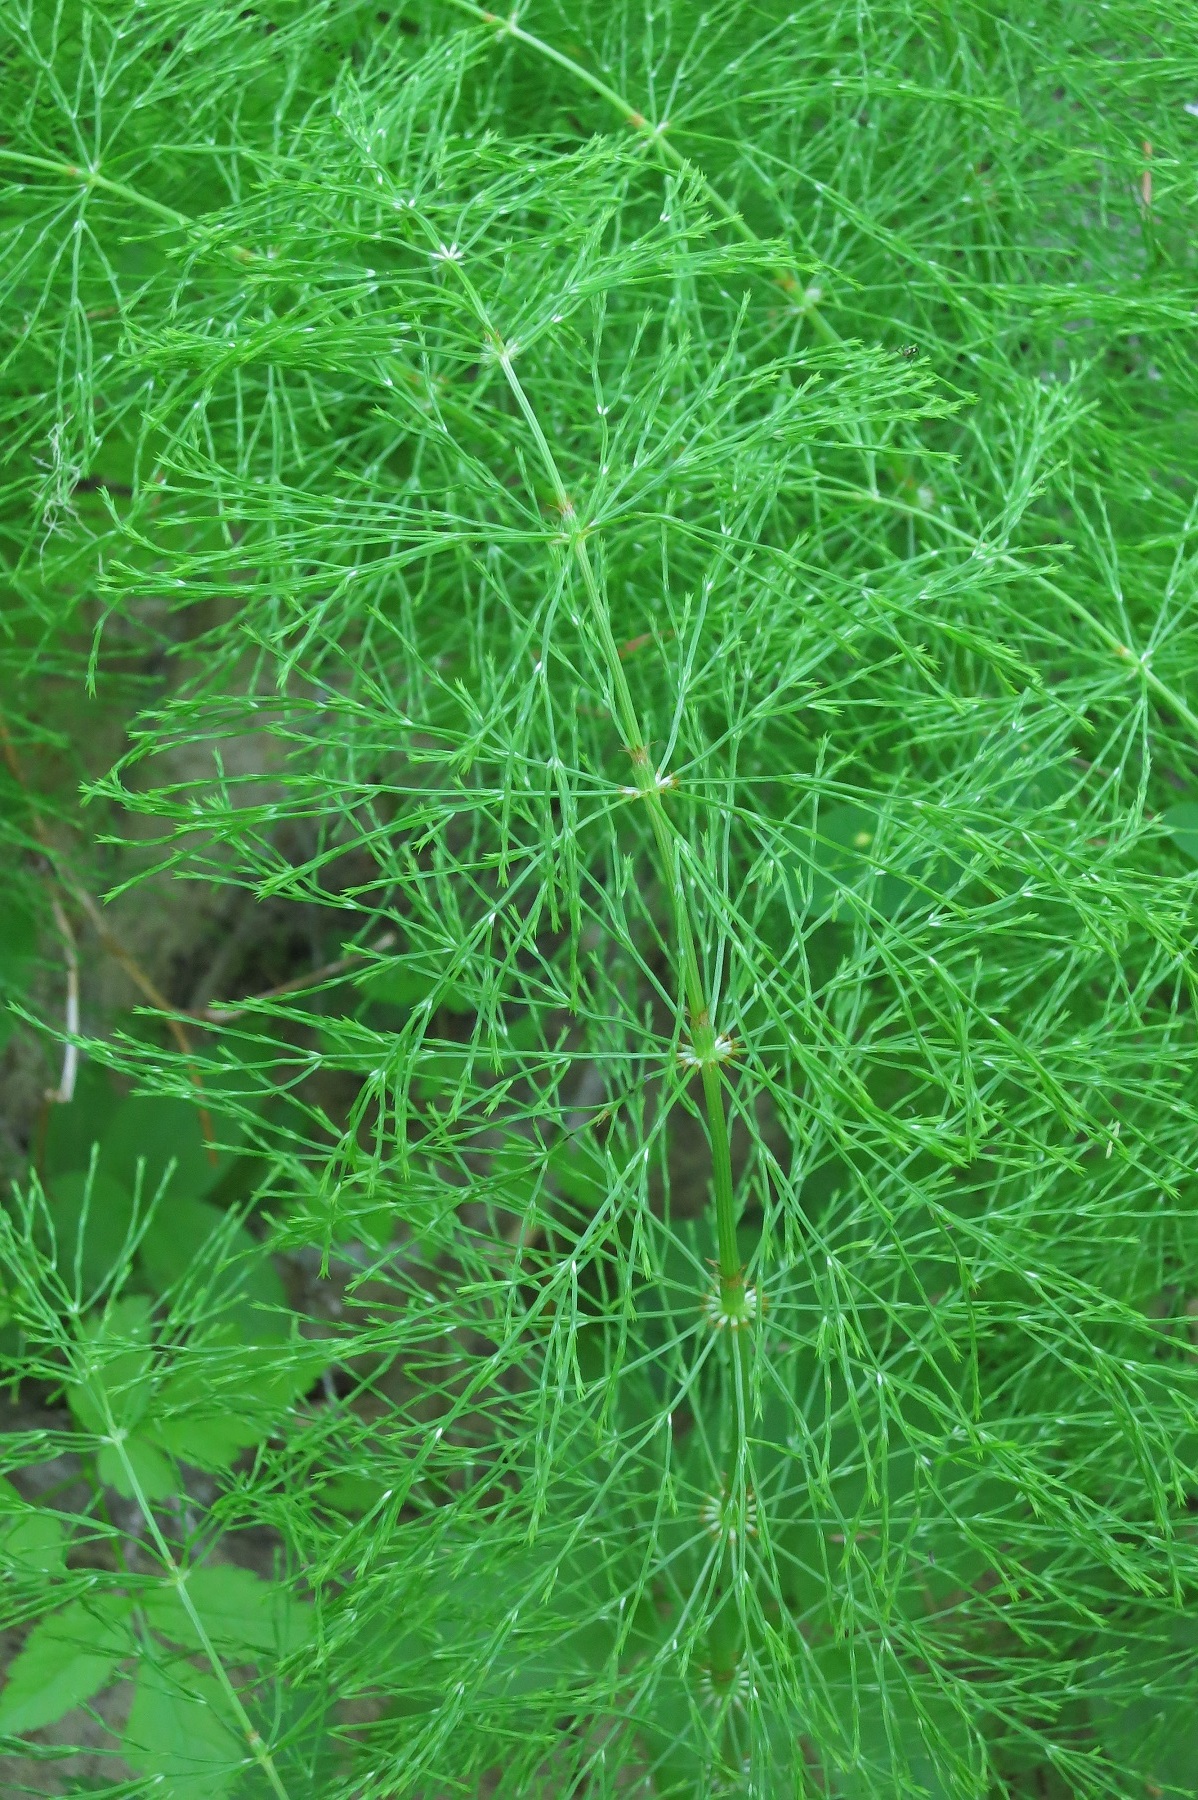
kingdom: Plantae
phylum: Tracheophyta
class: Polypodiopsida
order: Equisetales
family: Equisetaceae
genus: Equisetum
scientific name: Equisetum sylvaticum
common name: Wood horsetail
